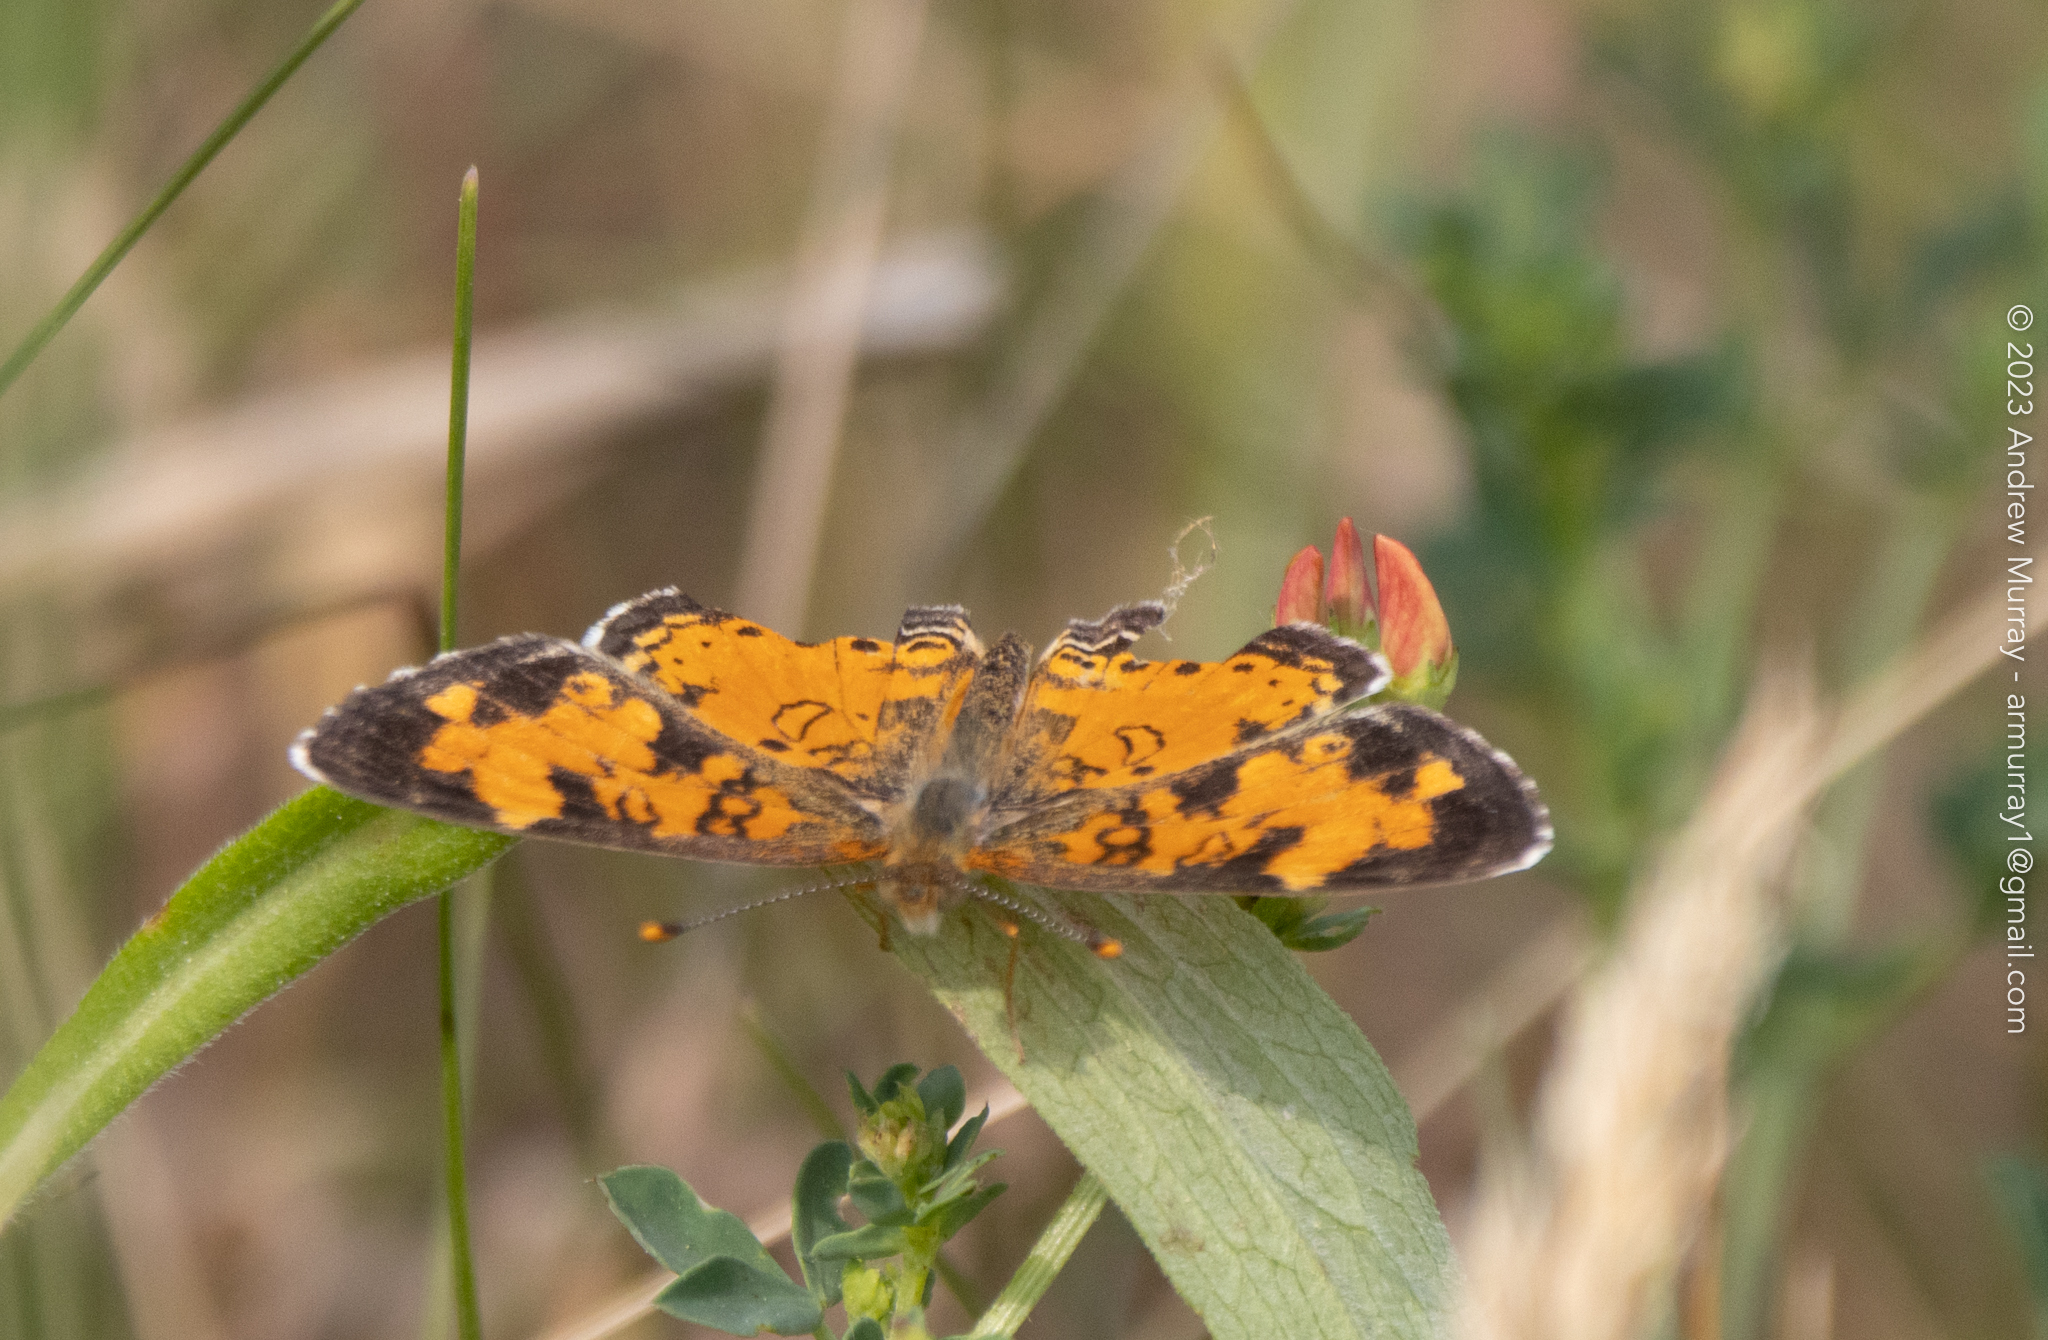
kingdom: Animalia
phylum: Arthropoda
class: Insecta
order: Lepidoptera
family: Nymphalidae
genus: Phyciodes
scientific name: Phyciodes tharos
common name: Pearl crescent
